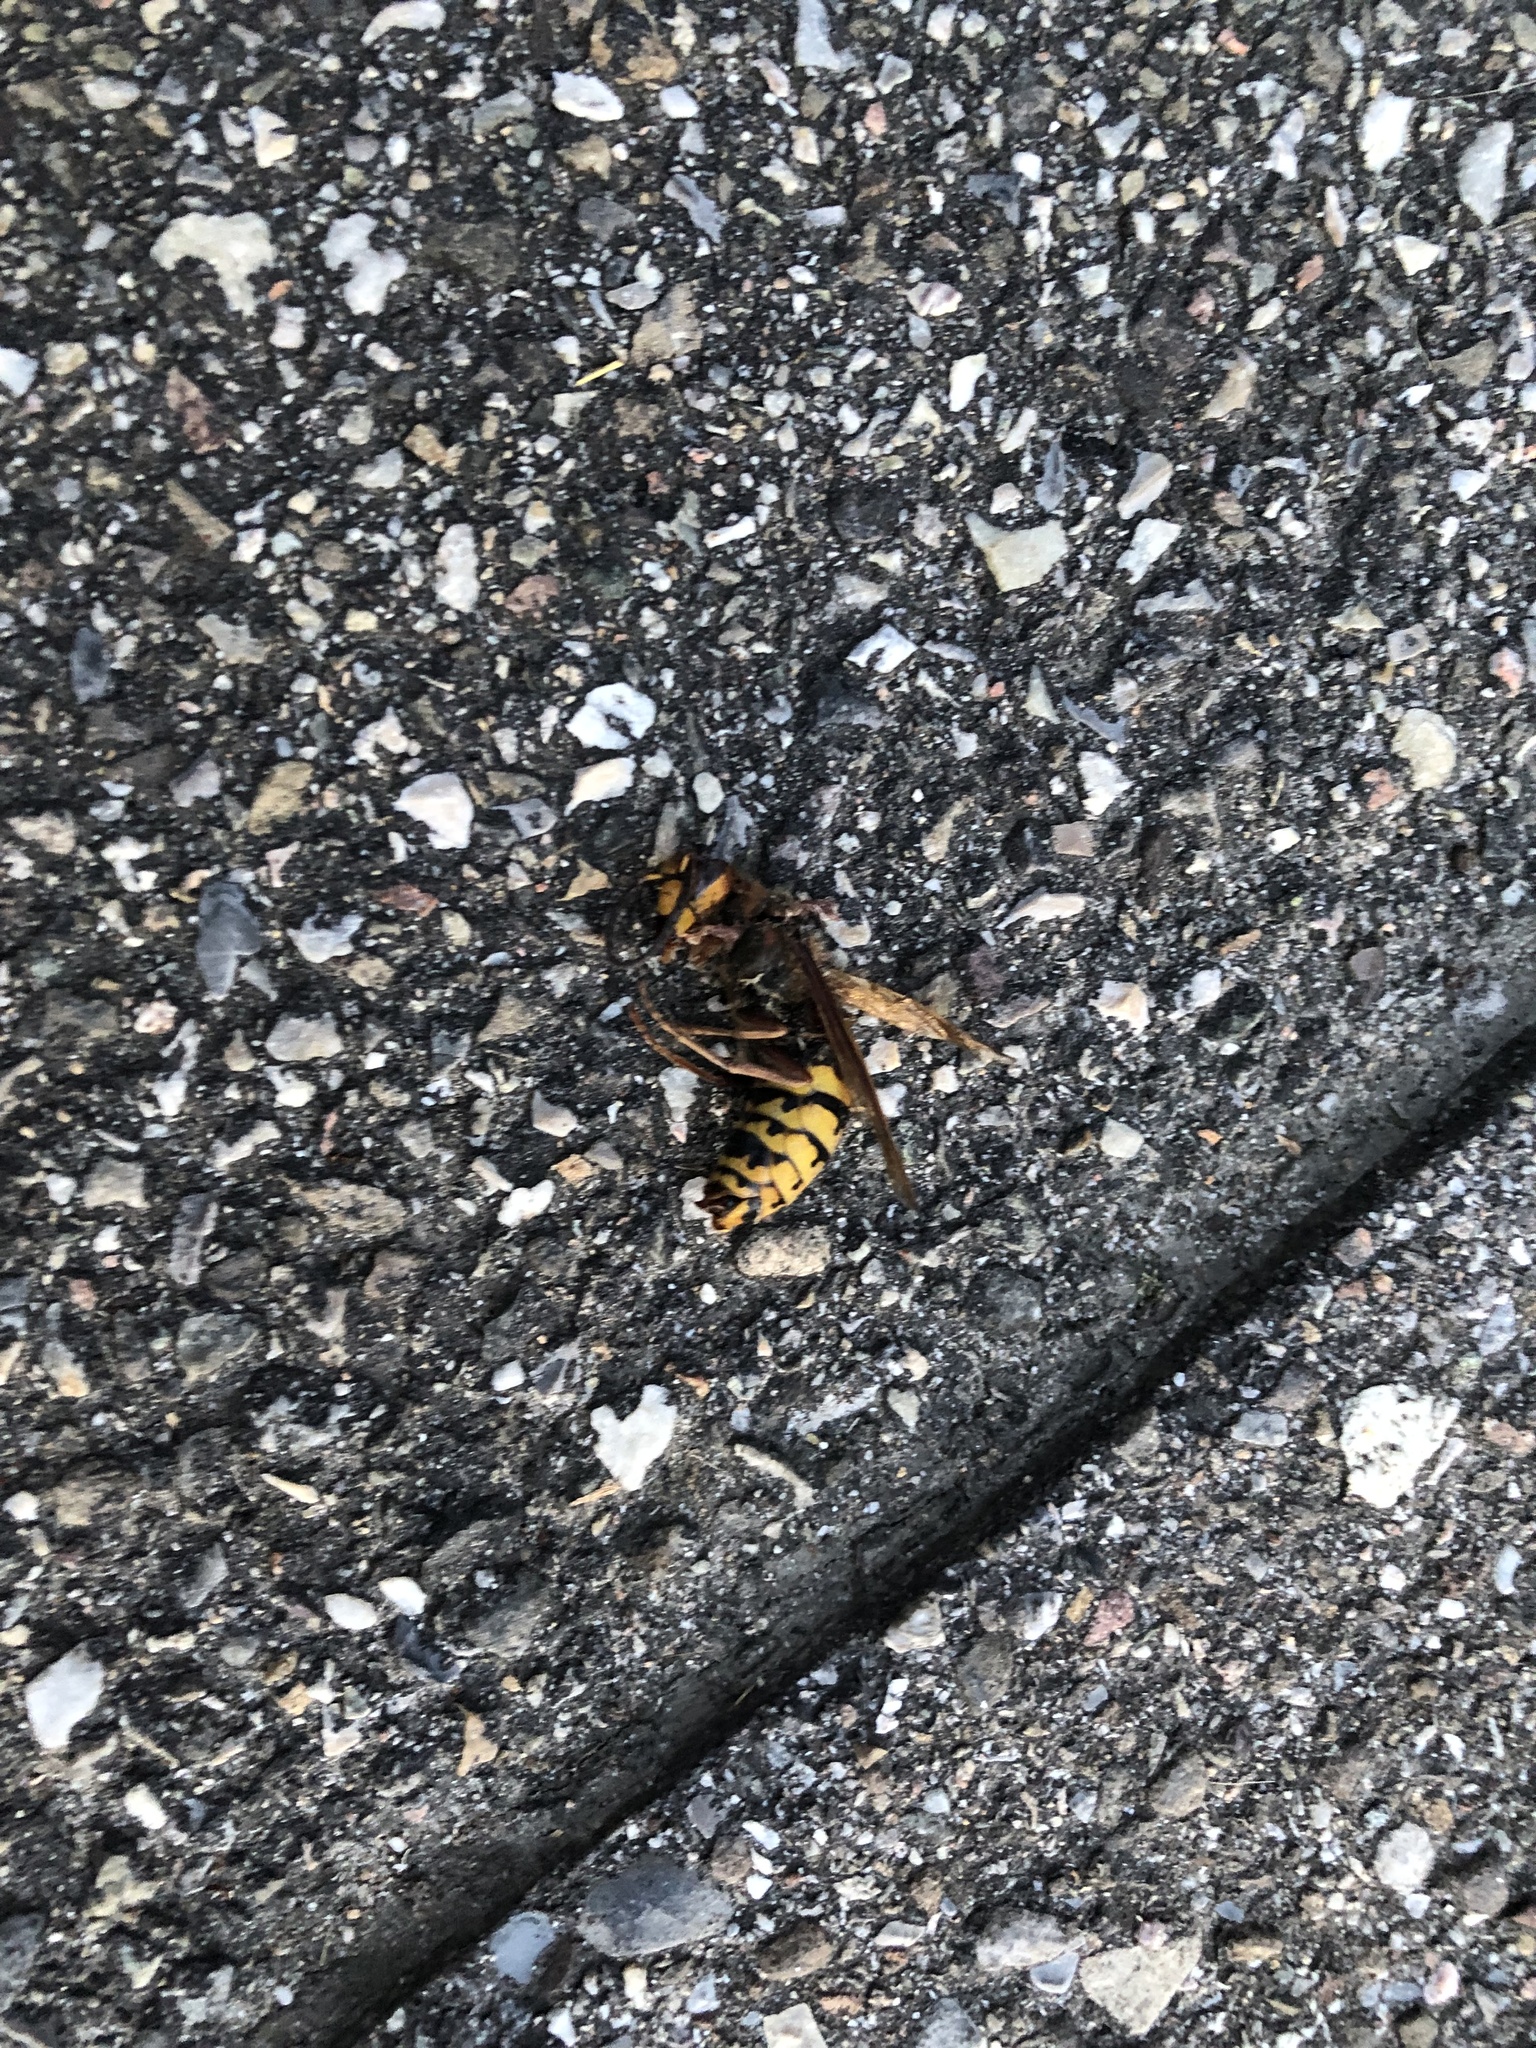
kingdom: Animalia
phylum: Arthropoda
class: Insecta
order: Hymenoptera
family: Vespidae
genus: Vespa
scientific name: Vespa crabro
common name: Hornet
